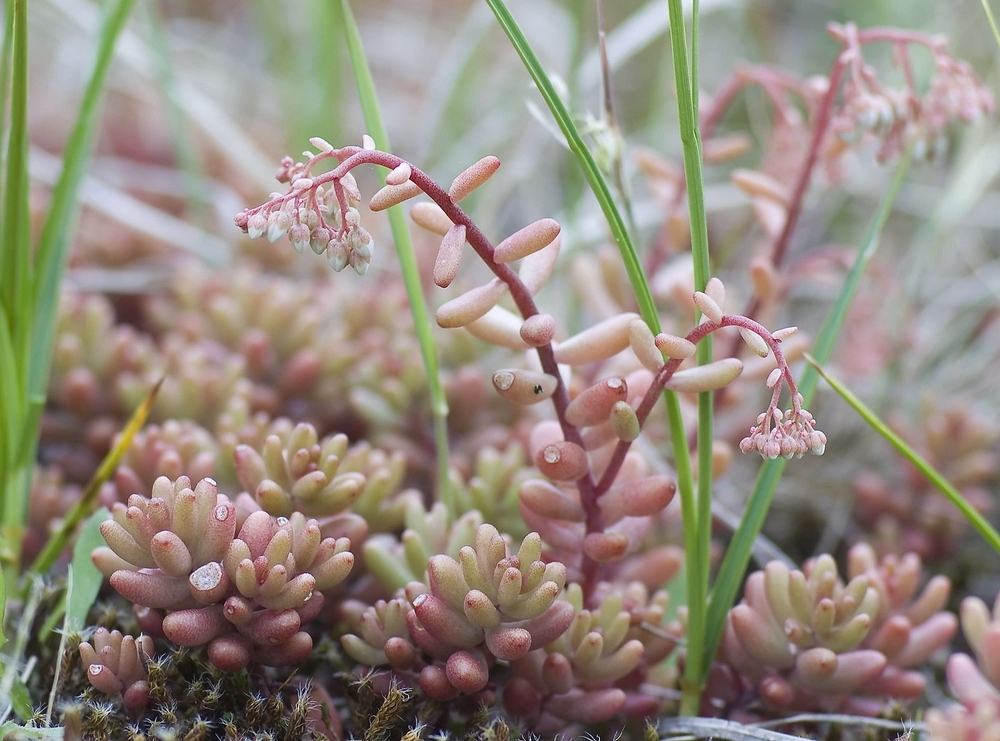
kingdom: Plantae
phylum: Tracheophyta
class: Magnoliopsida
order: Saxifragales
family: Crassulaceae
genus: Sedum
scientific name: Sedum album
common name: White stonecrop
